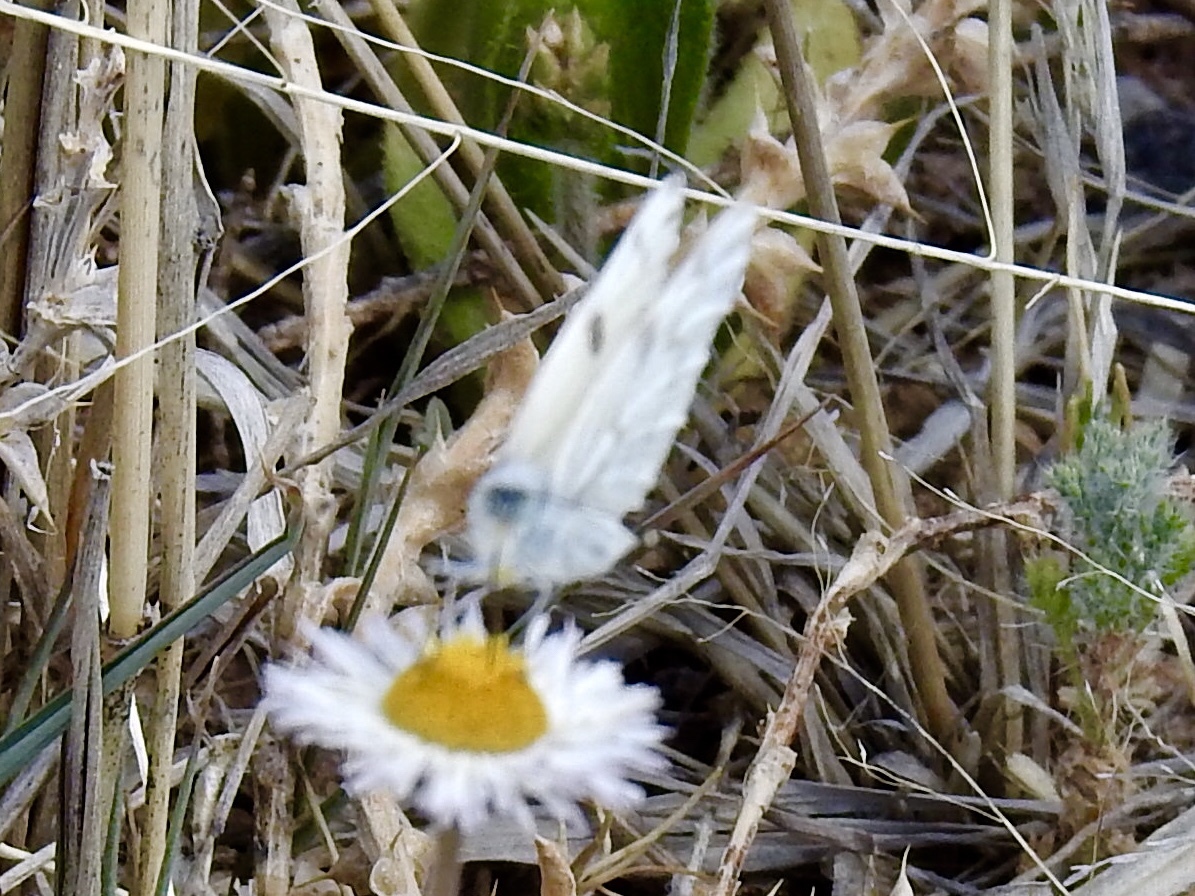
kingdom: Animalia
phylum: Arthropoda
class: Insecta
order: Lepidoptera
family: Pieridae
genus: Pontia
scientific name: Pontia protodice
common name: Checkered white
